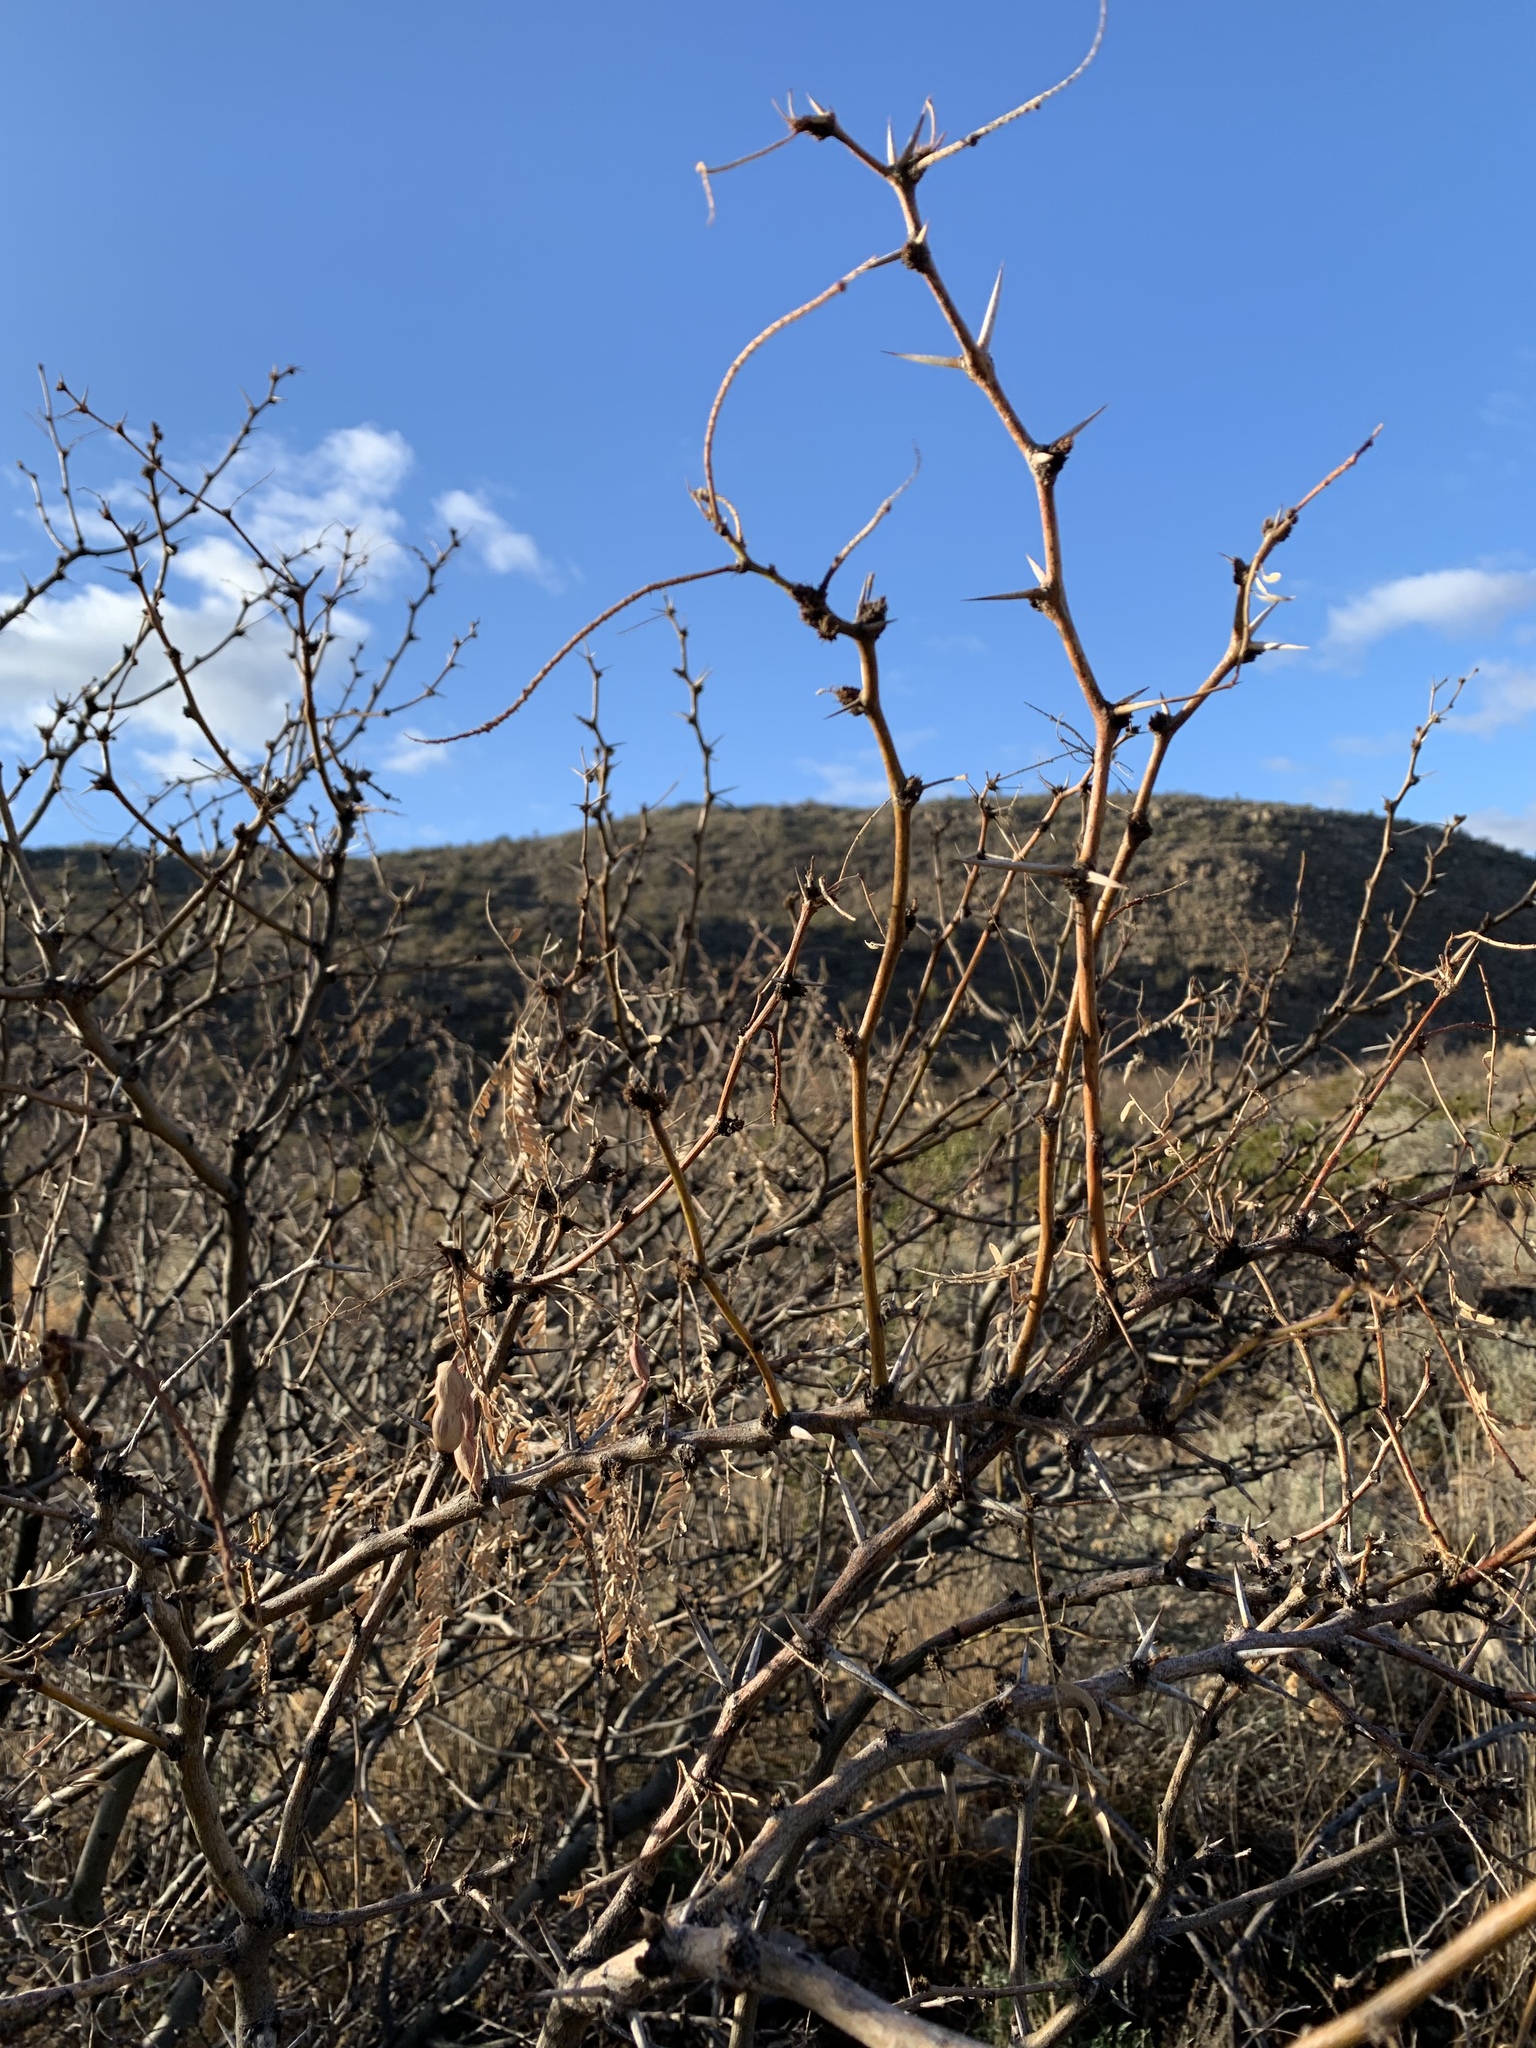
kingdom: Plantae
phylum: Tracheophyta
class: Magnoliopsida
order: Fabales
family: Fabaceae
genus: Prosopis
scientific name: Prosopis glandulosa
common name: Honey mesquite
